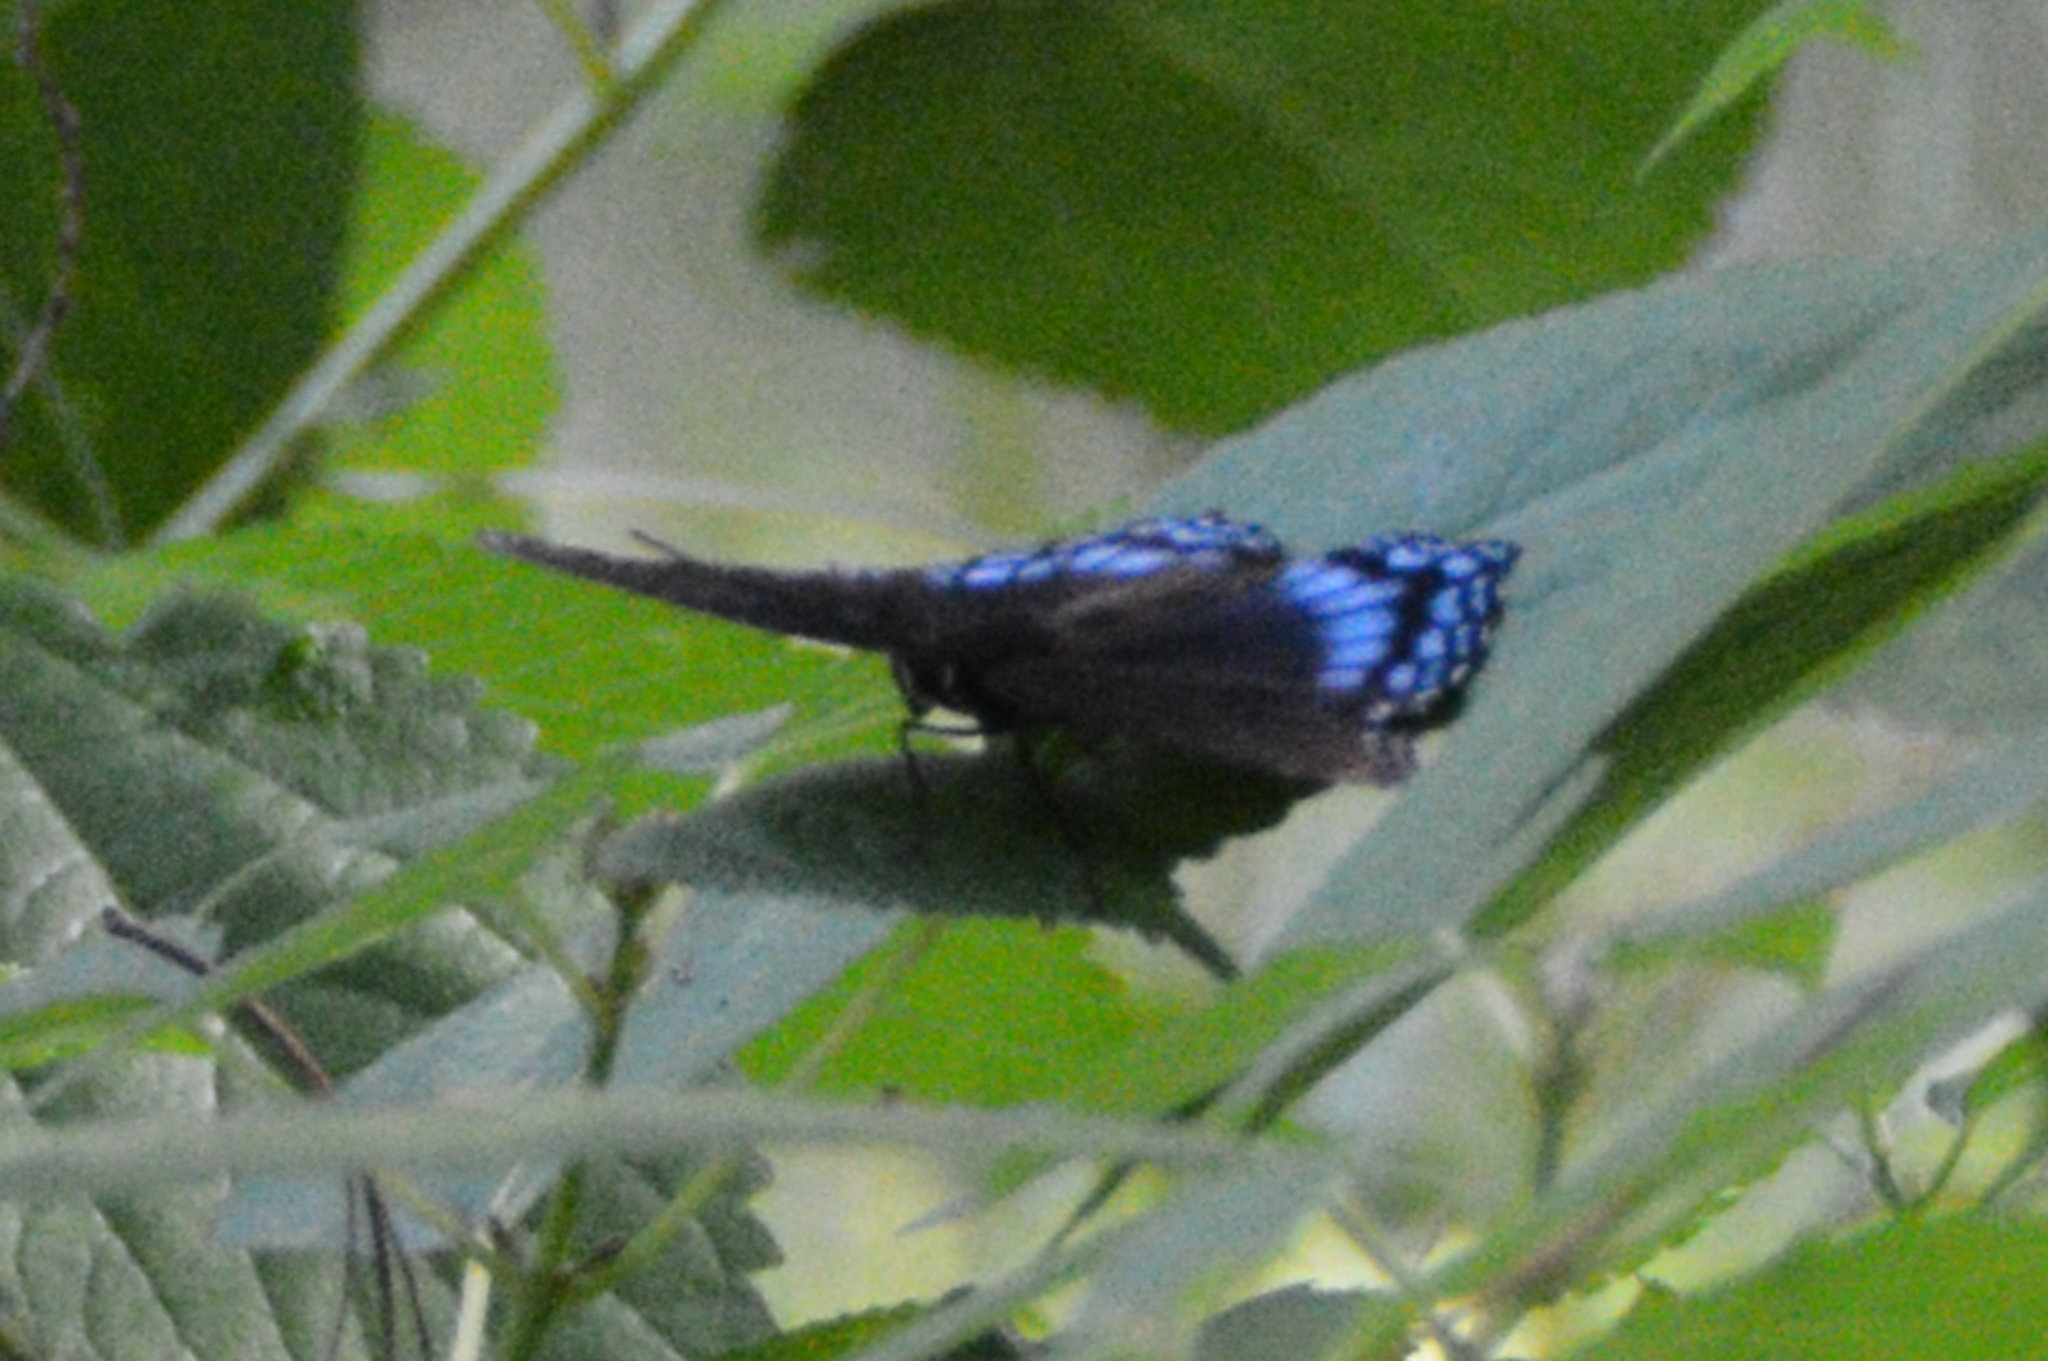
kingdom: Animalia
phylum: Arthropoda
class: Insecta
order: Lepidoptera
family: Nymphalidae
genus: Limenitis
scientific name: Limenitis astyanax
